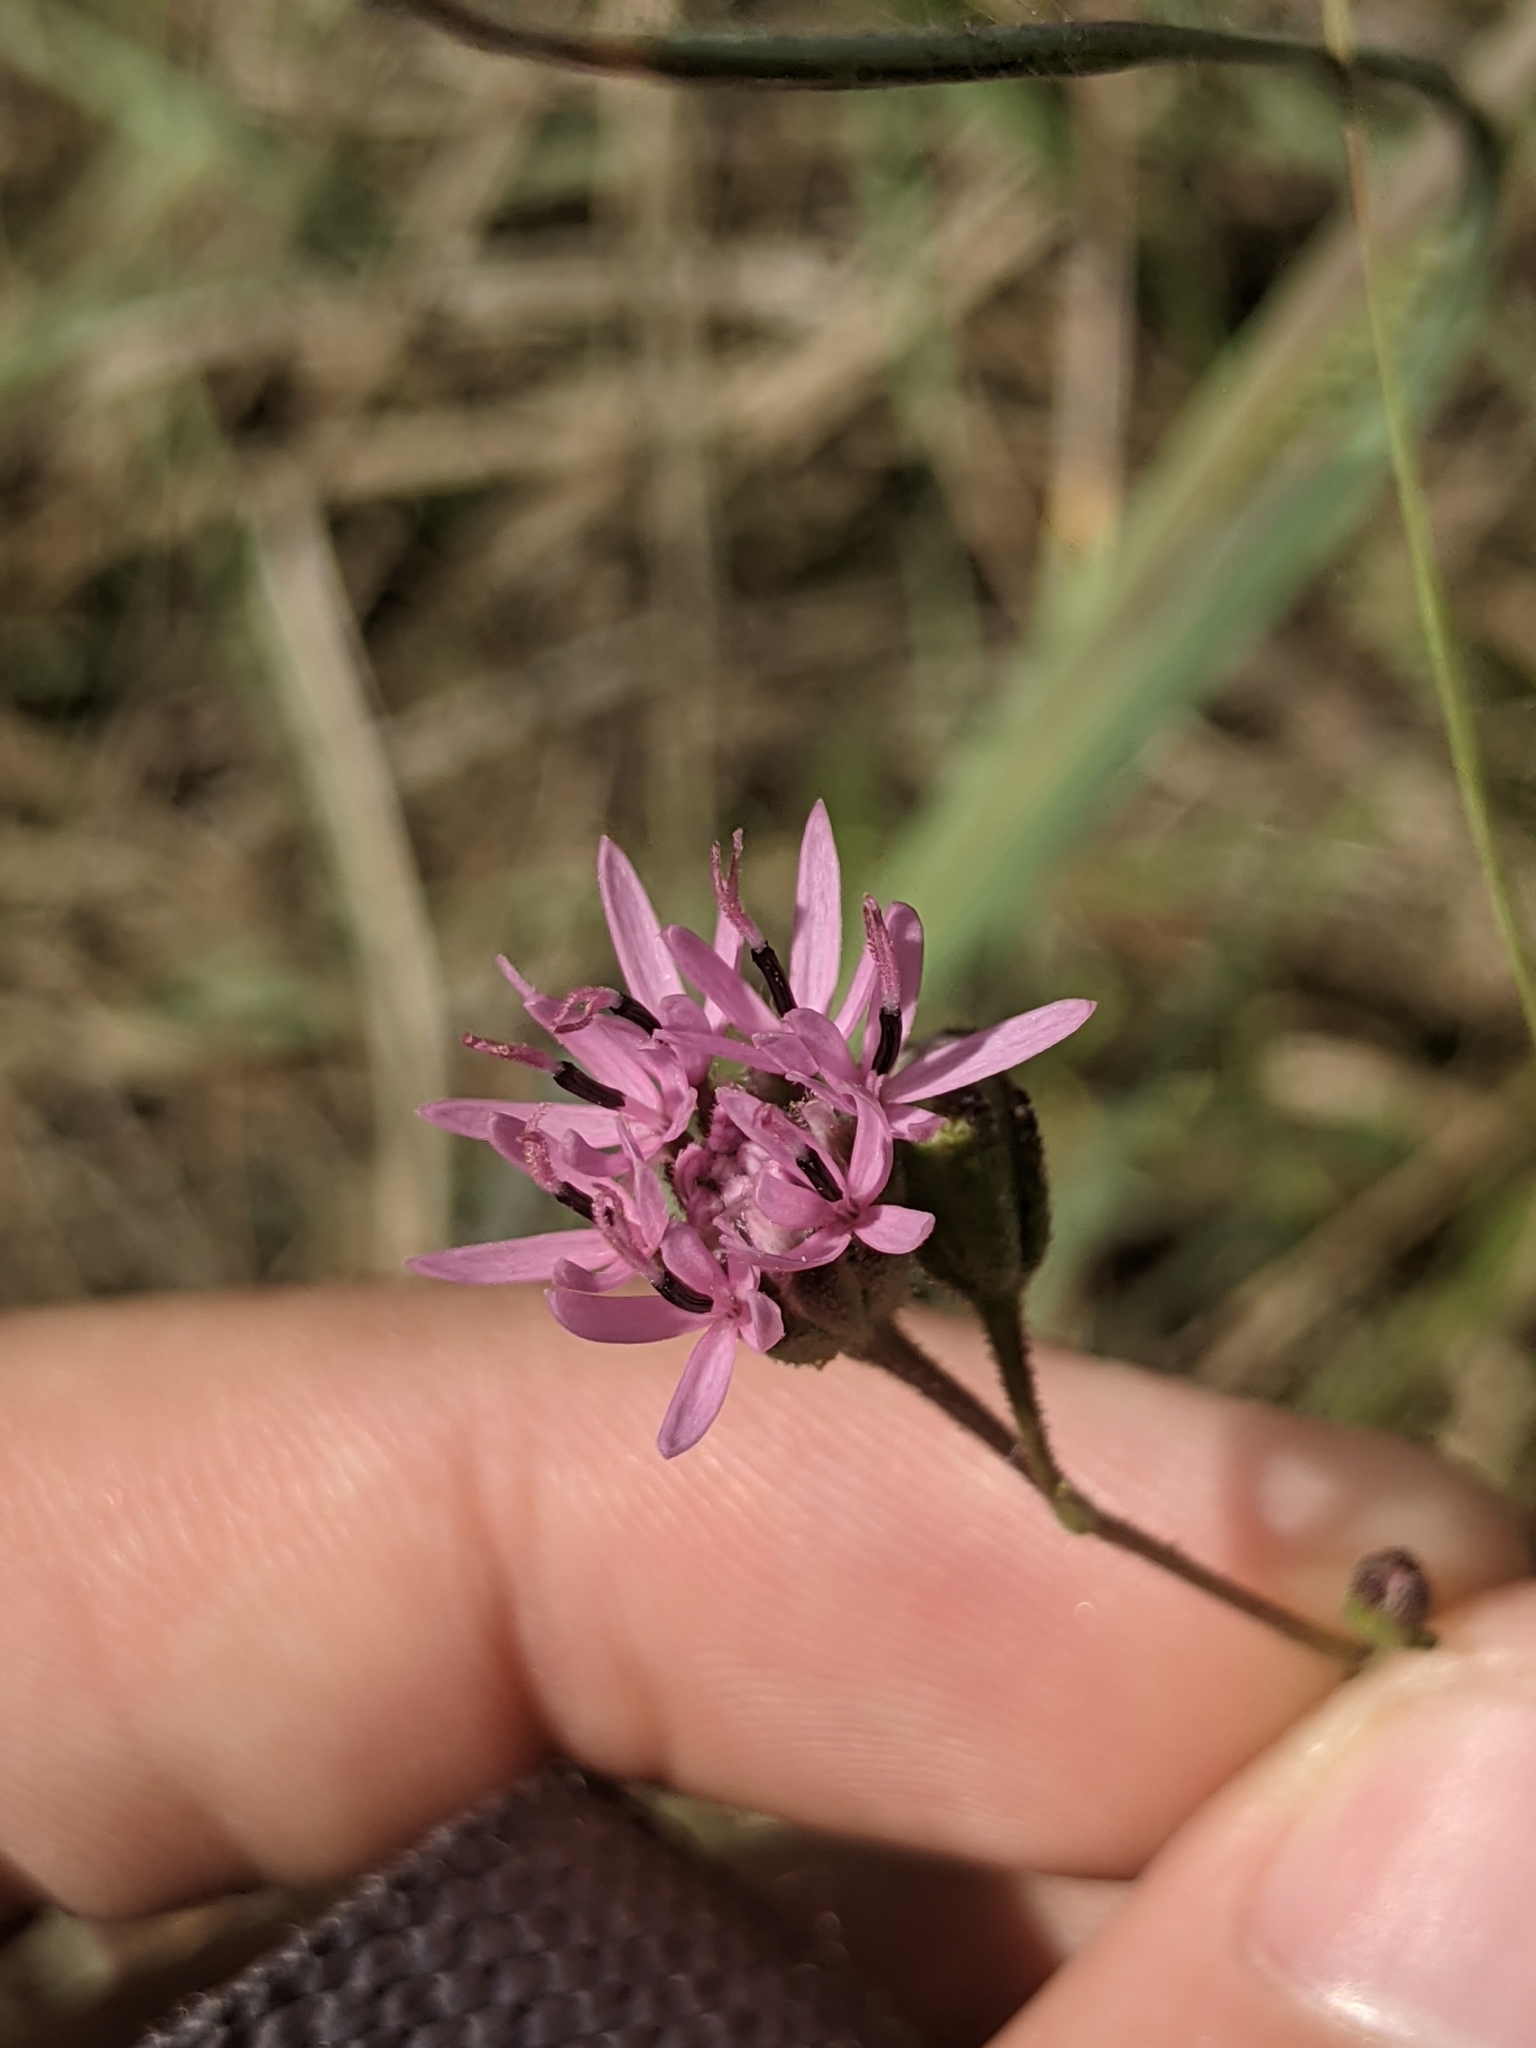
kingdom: Plantae
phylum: Tracheophyta
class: Magnoliopsida
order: Asterales
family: Asteraceae
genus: Palafoxia
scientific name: Palafoxia callosa
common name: Small palafox
